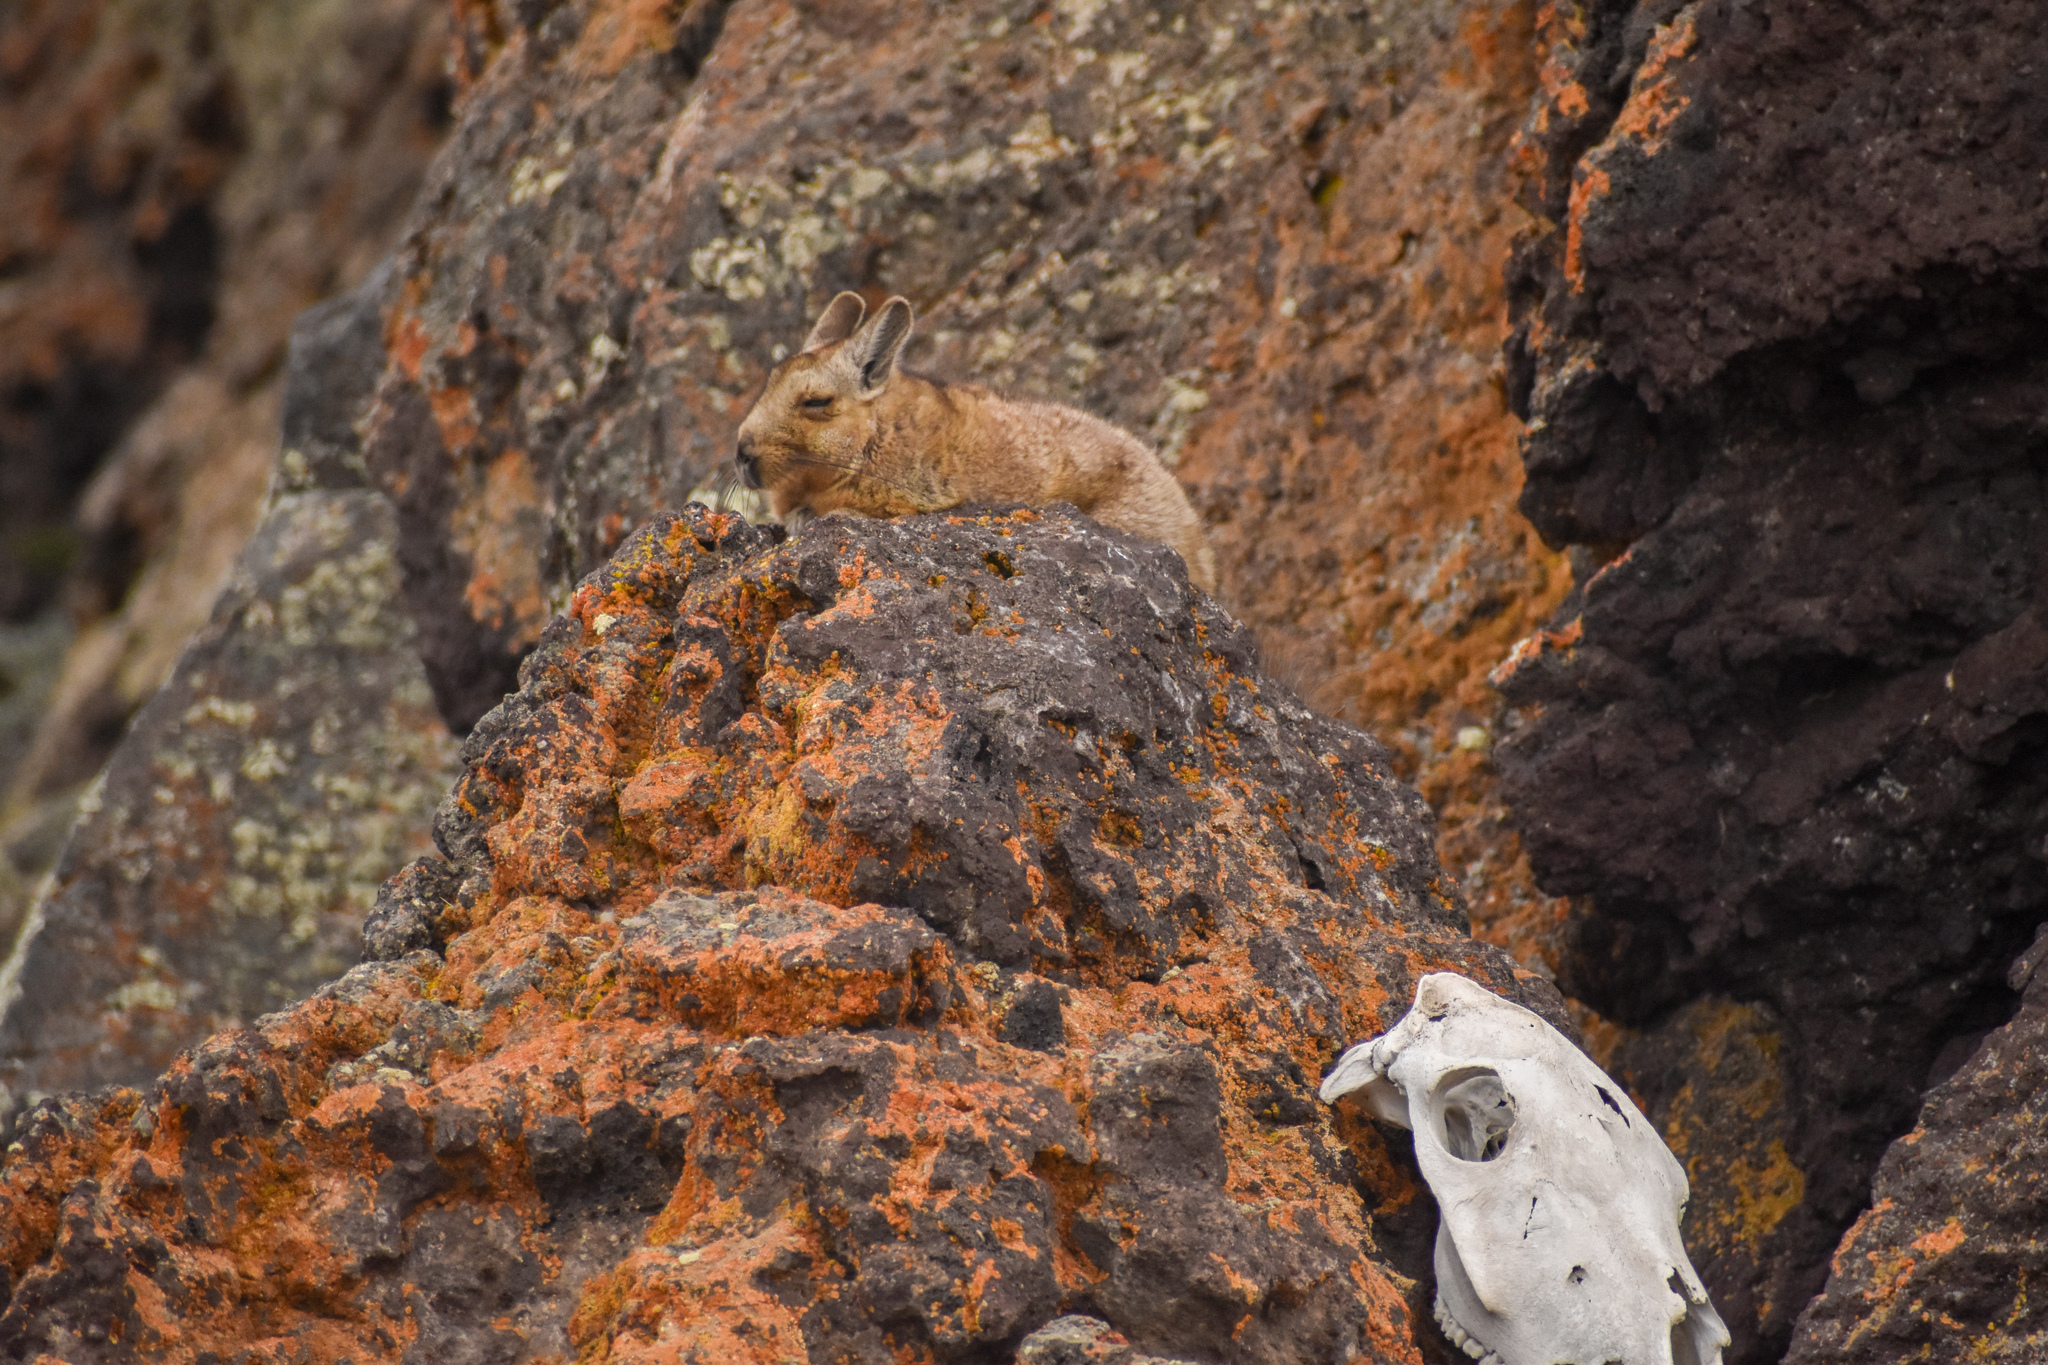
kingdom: Animalia
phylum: Chordata
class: Mammalia
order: Rodentia
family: Chinchillidae
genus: Lagidium
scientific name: Lagidium wolffsohni
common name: Wolffsohn's viscacha
